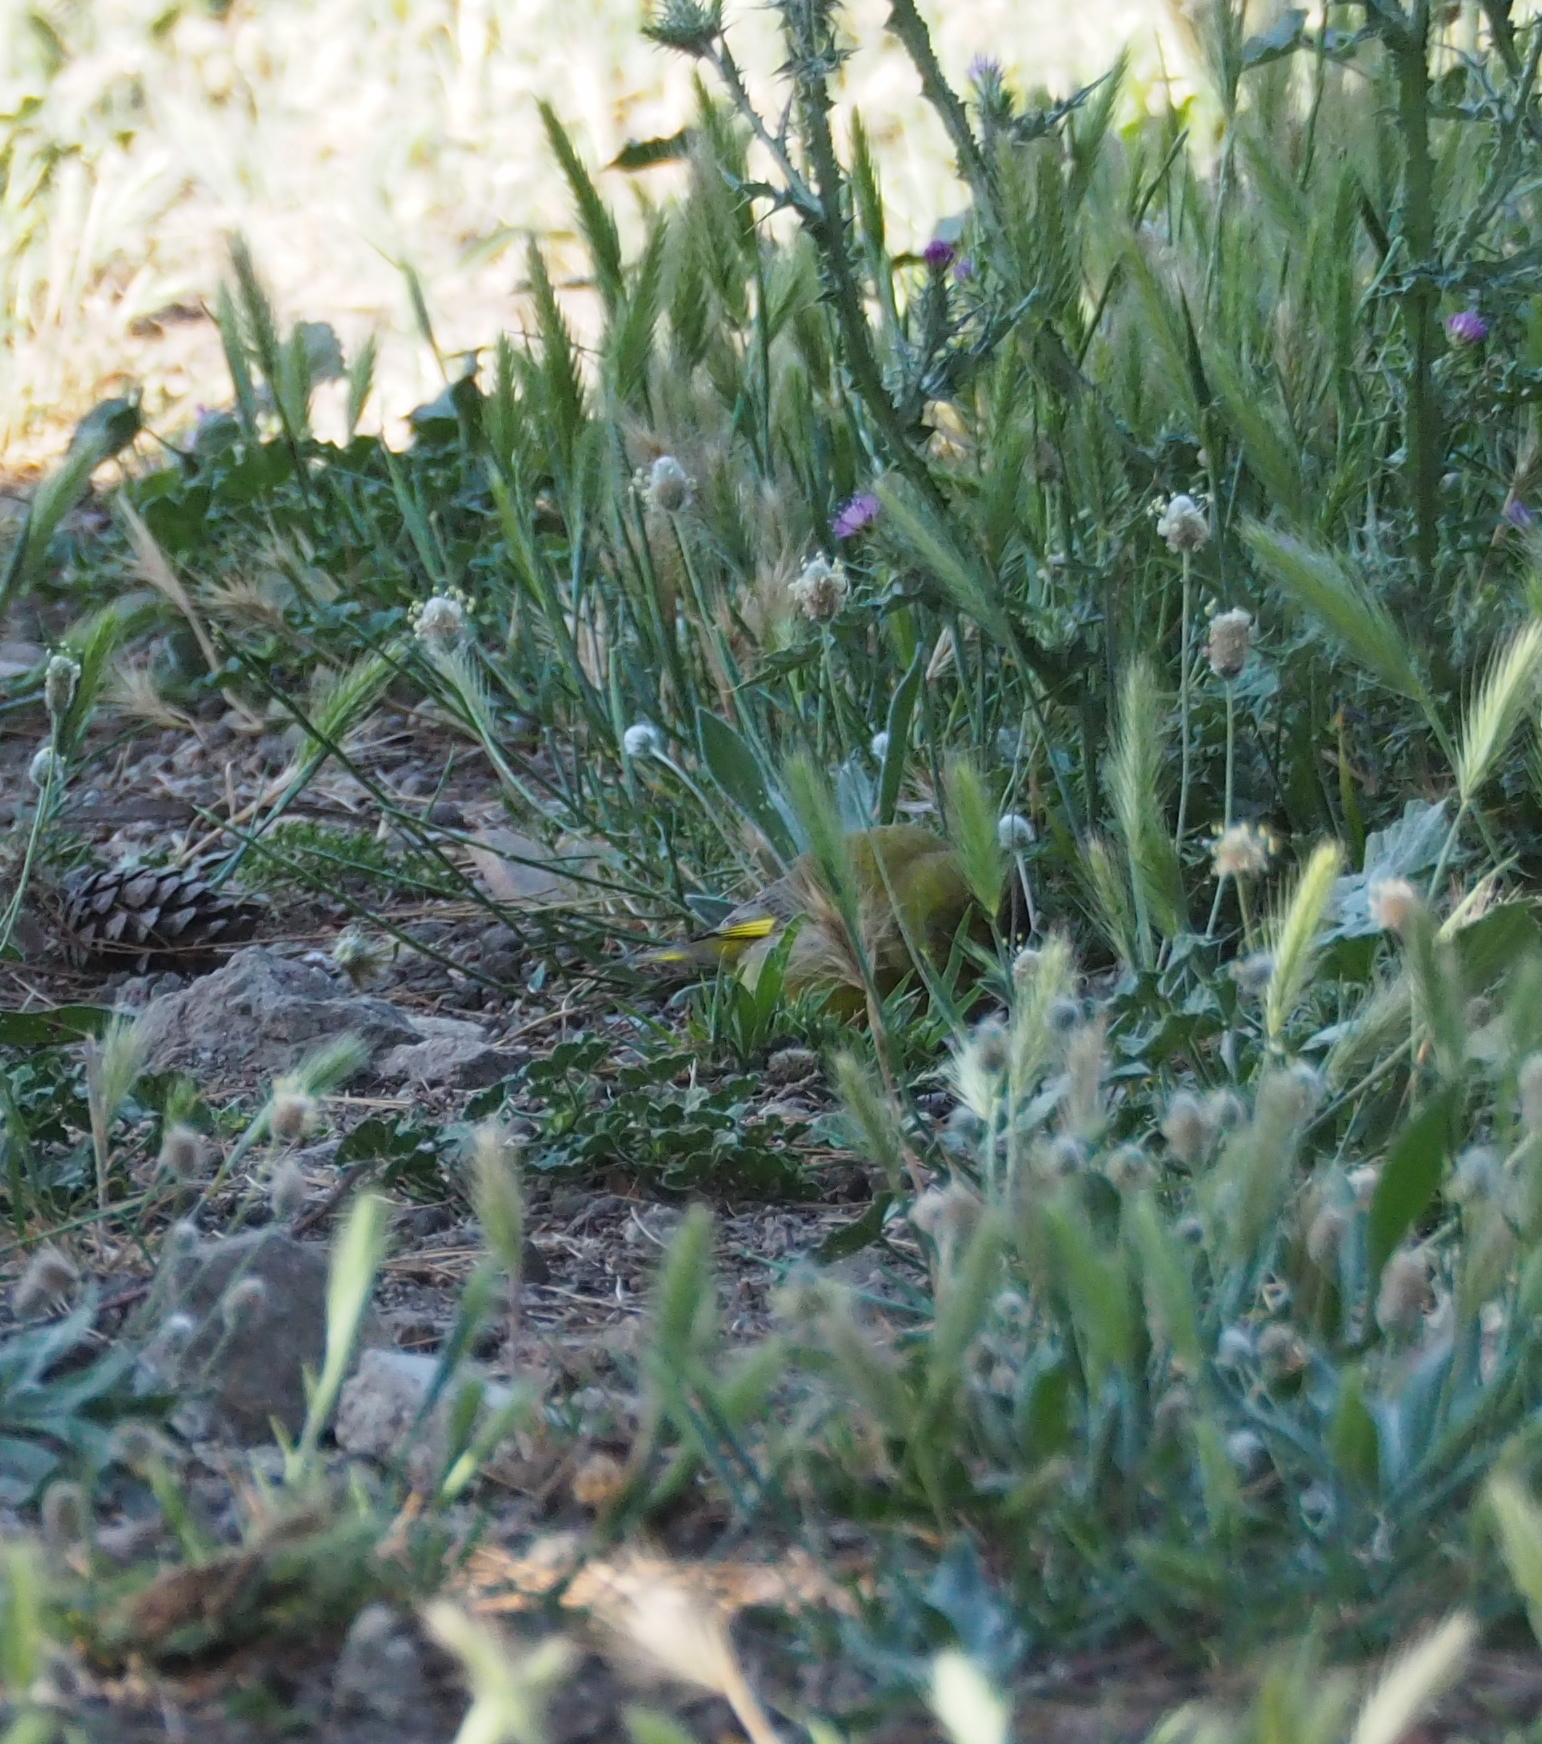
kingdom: Plantae
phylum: Tracheophyta
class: Liliopsida
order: Poales
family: Poaceae
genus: Chloris
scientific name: Chloris chloris
